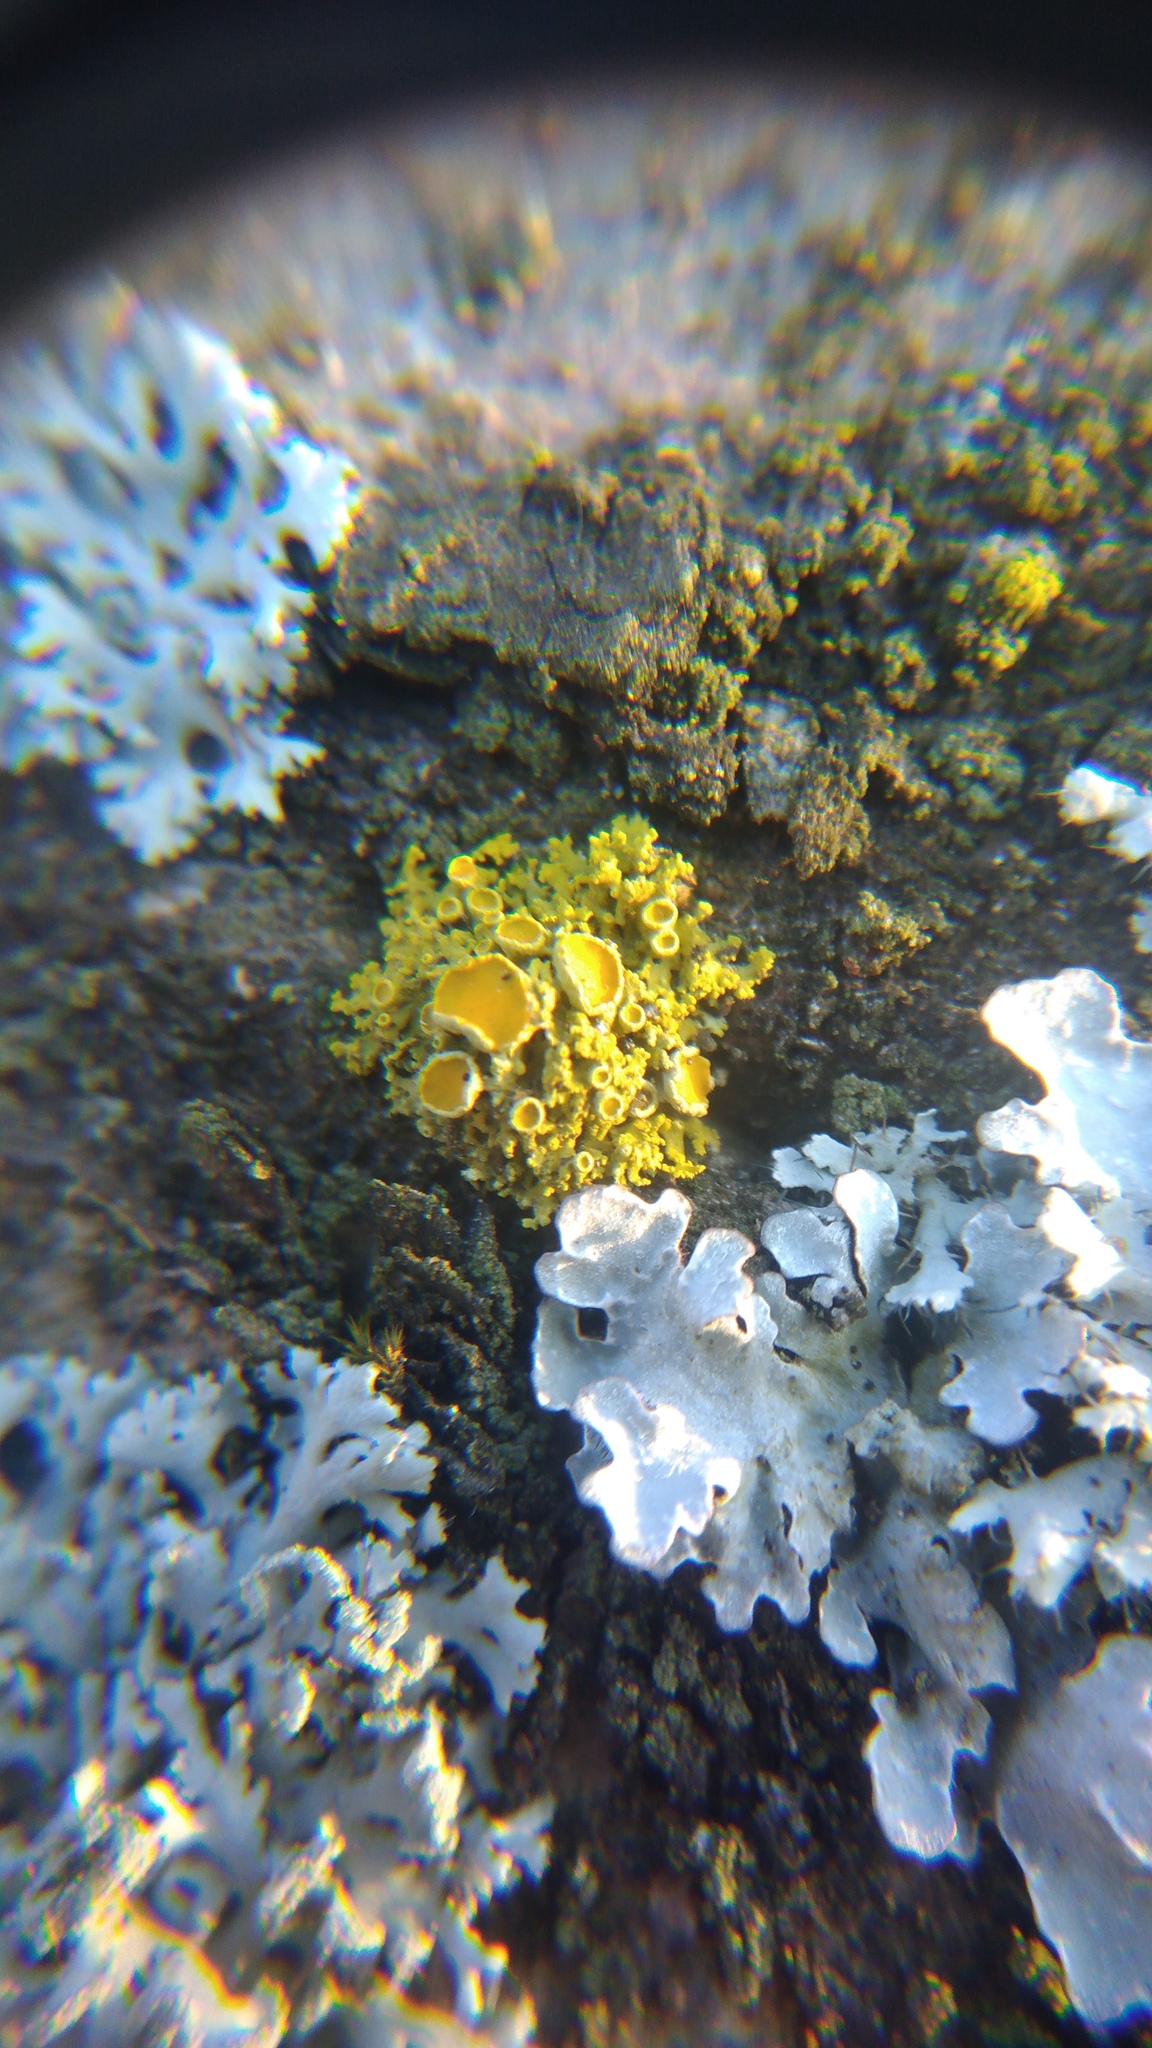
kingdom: Fungi
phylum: Ascomycota
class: Lecanoromycetes
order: Teloschistales
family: Teloschistaceae
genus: Polycauliona
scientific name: Polycauliona polycarpa
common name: Pin-cushion sunburst lichen
